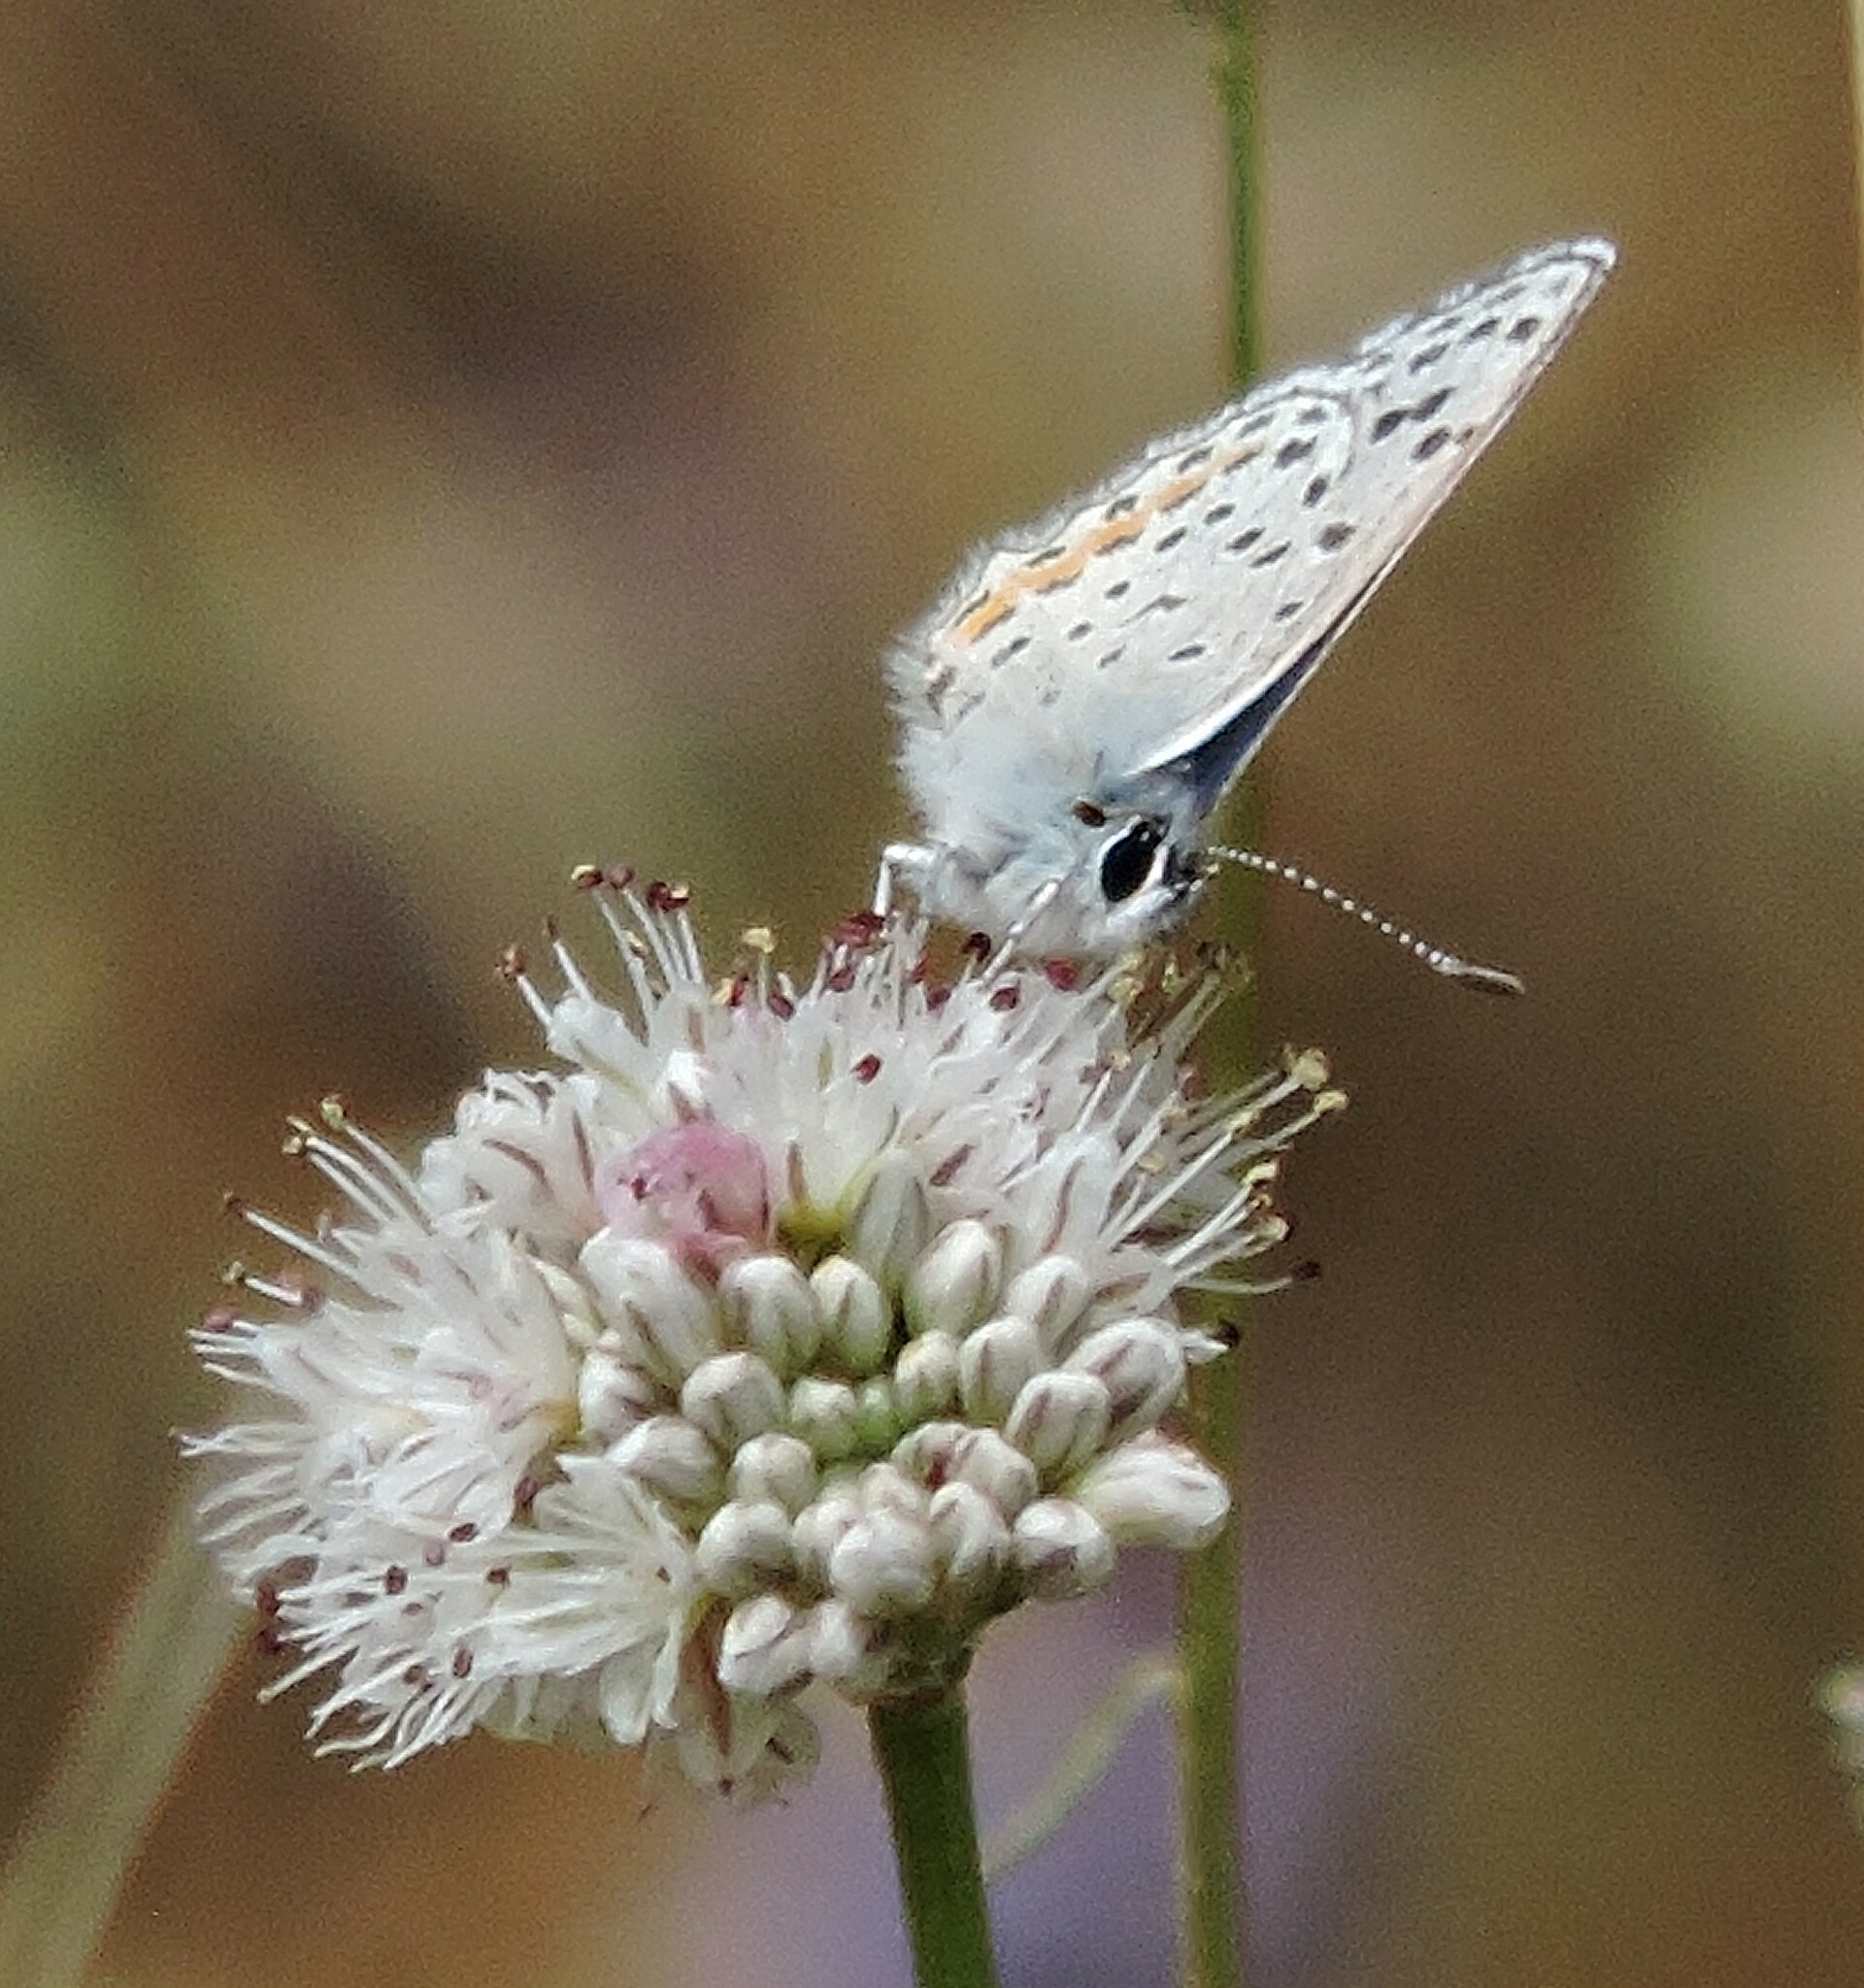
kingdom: Animalia
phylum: Arthropoda
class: Insecta
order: Lepidoptera
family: Lycaenidae
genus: Euphilotes
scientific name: Euphilotes enoptes
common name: Dotted blue
